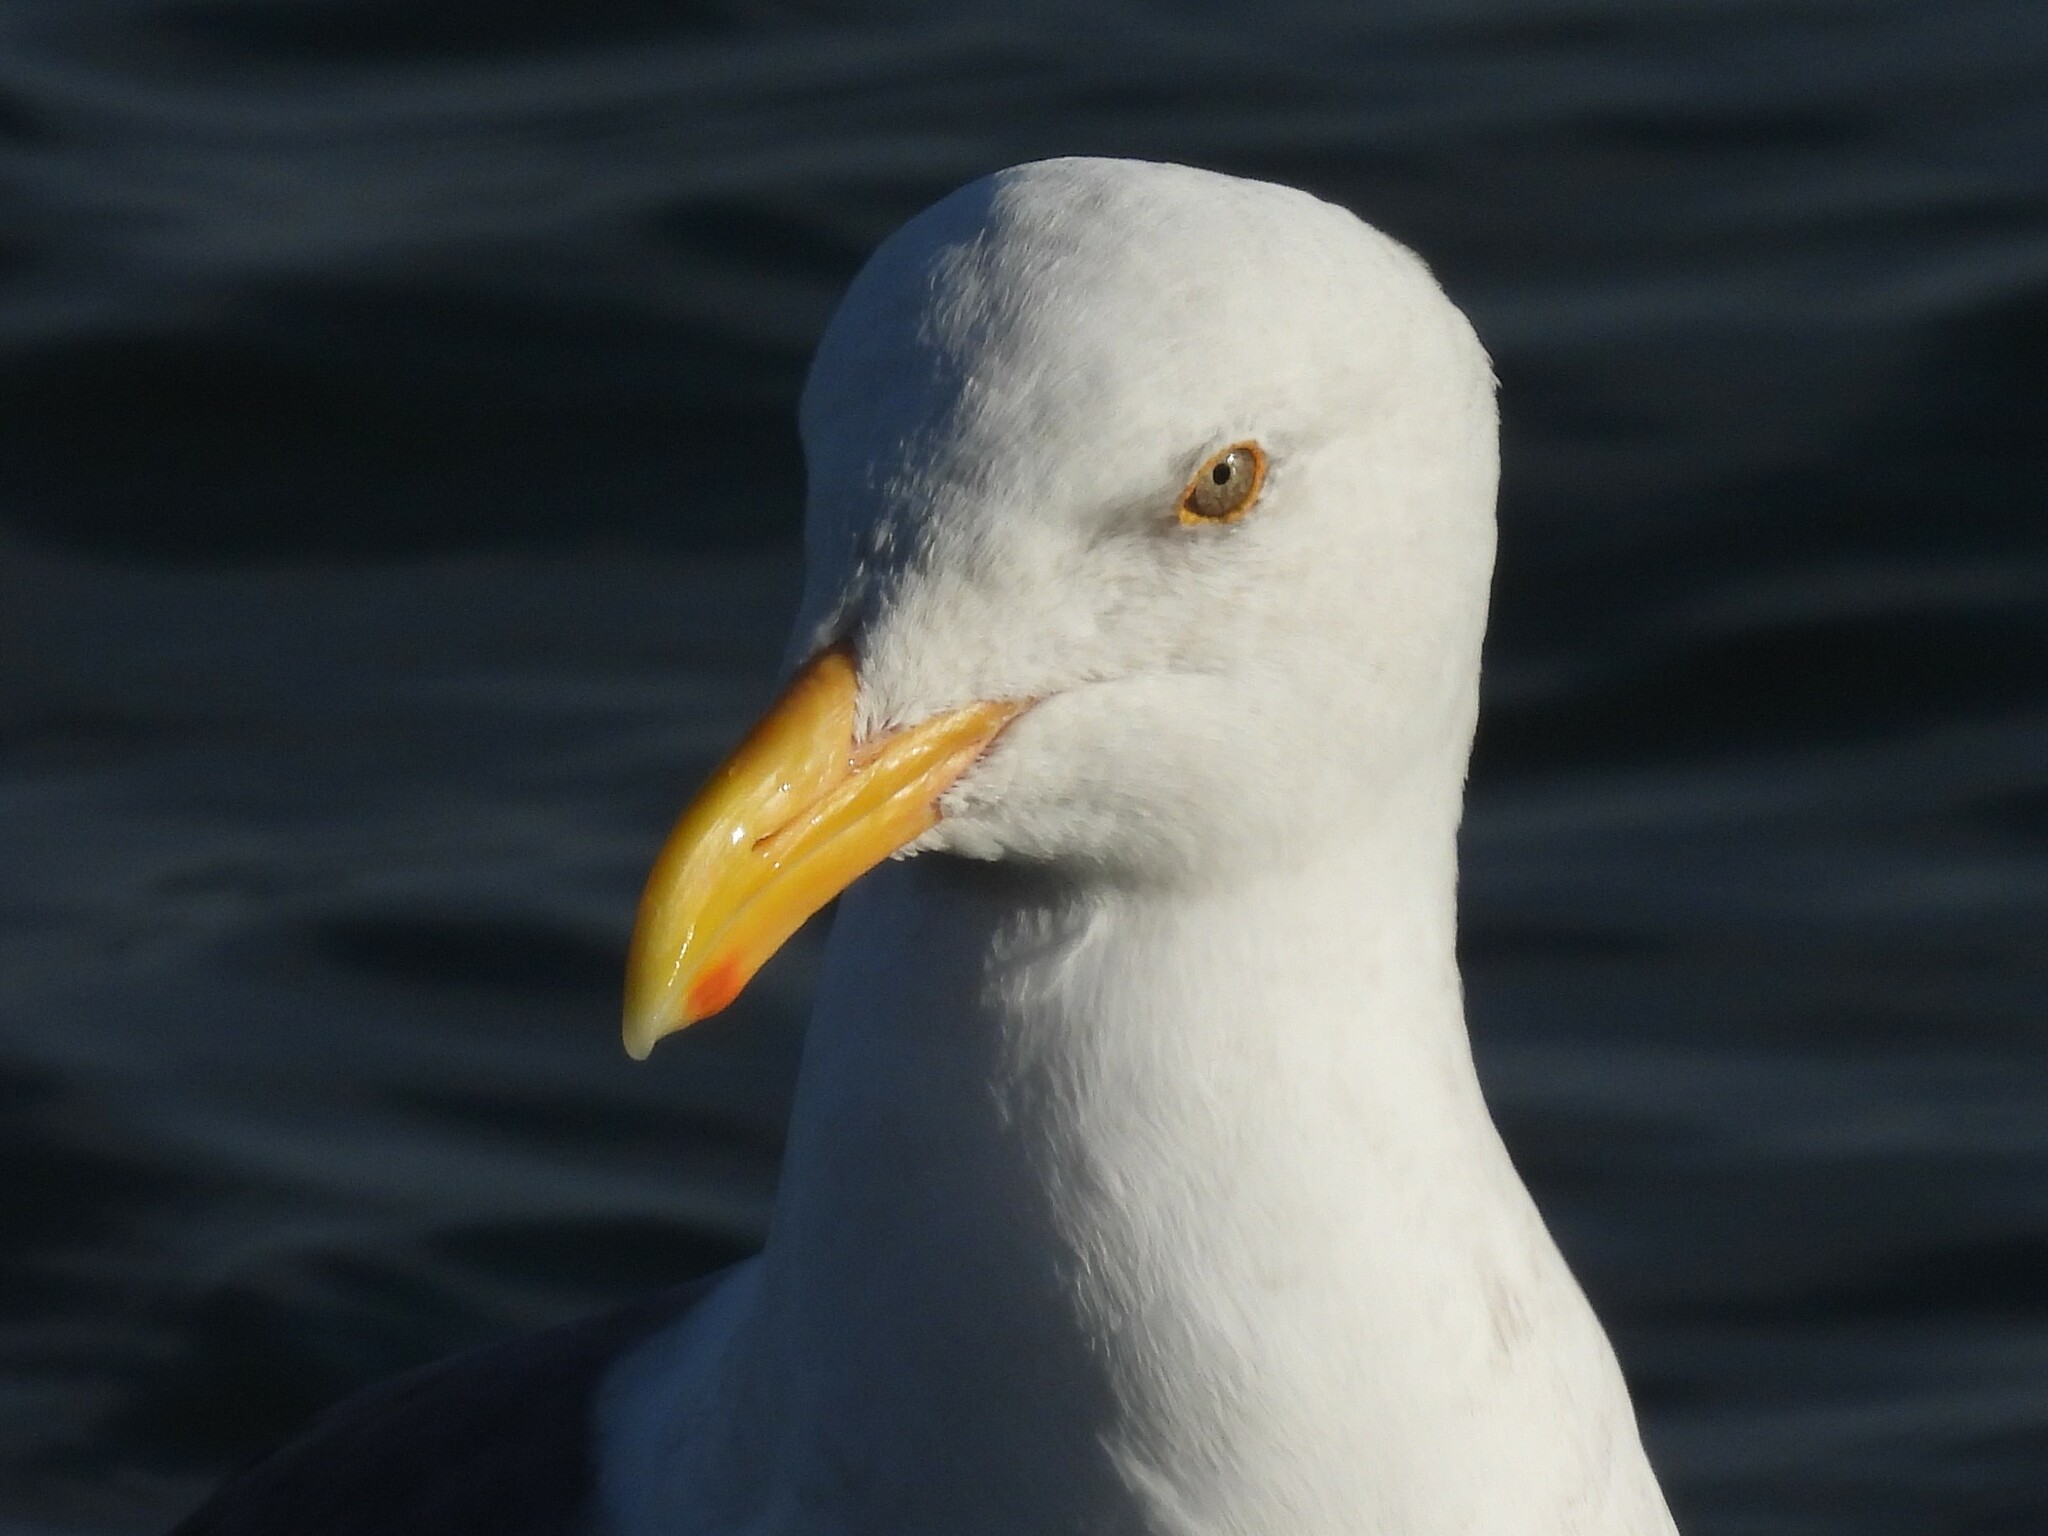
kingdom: Animalia
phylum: Chordata
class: Aves
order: Charadriiformes
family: Laridae
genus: Larus
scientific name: Larus occidentalis
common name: Western gull
